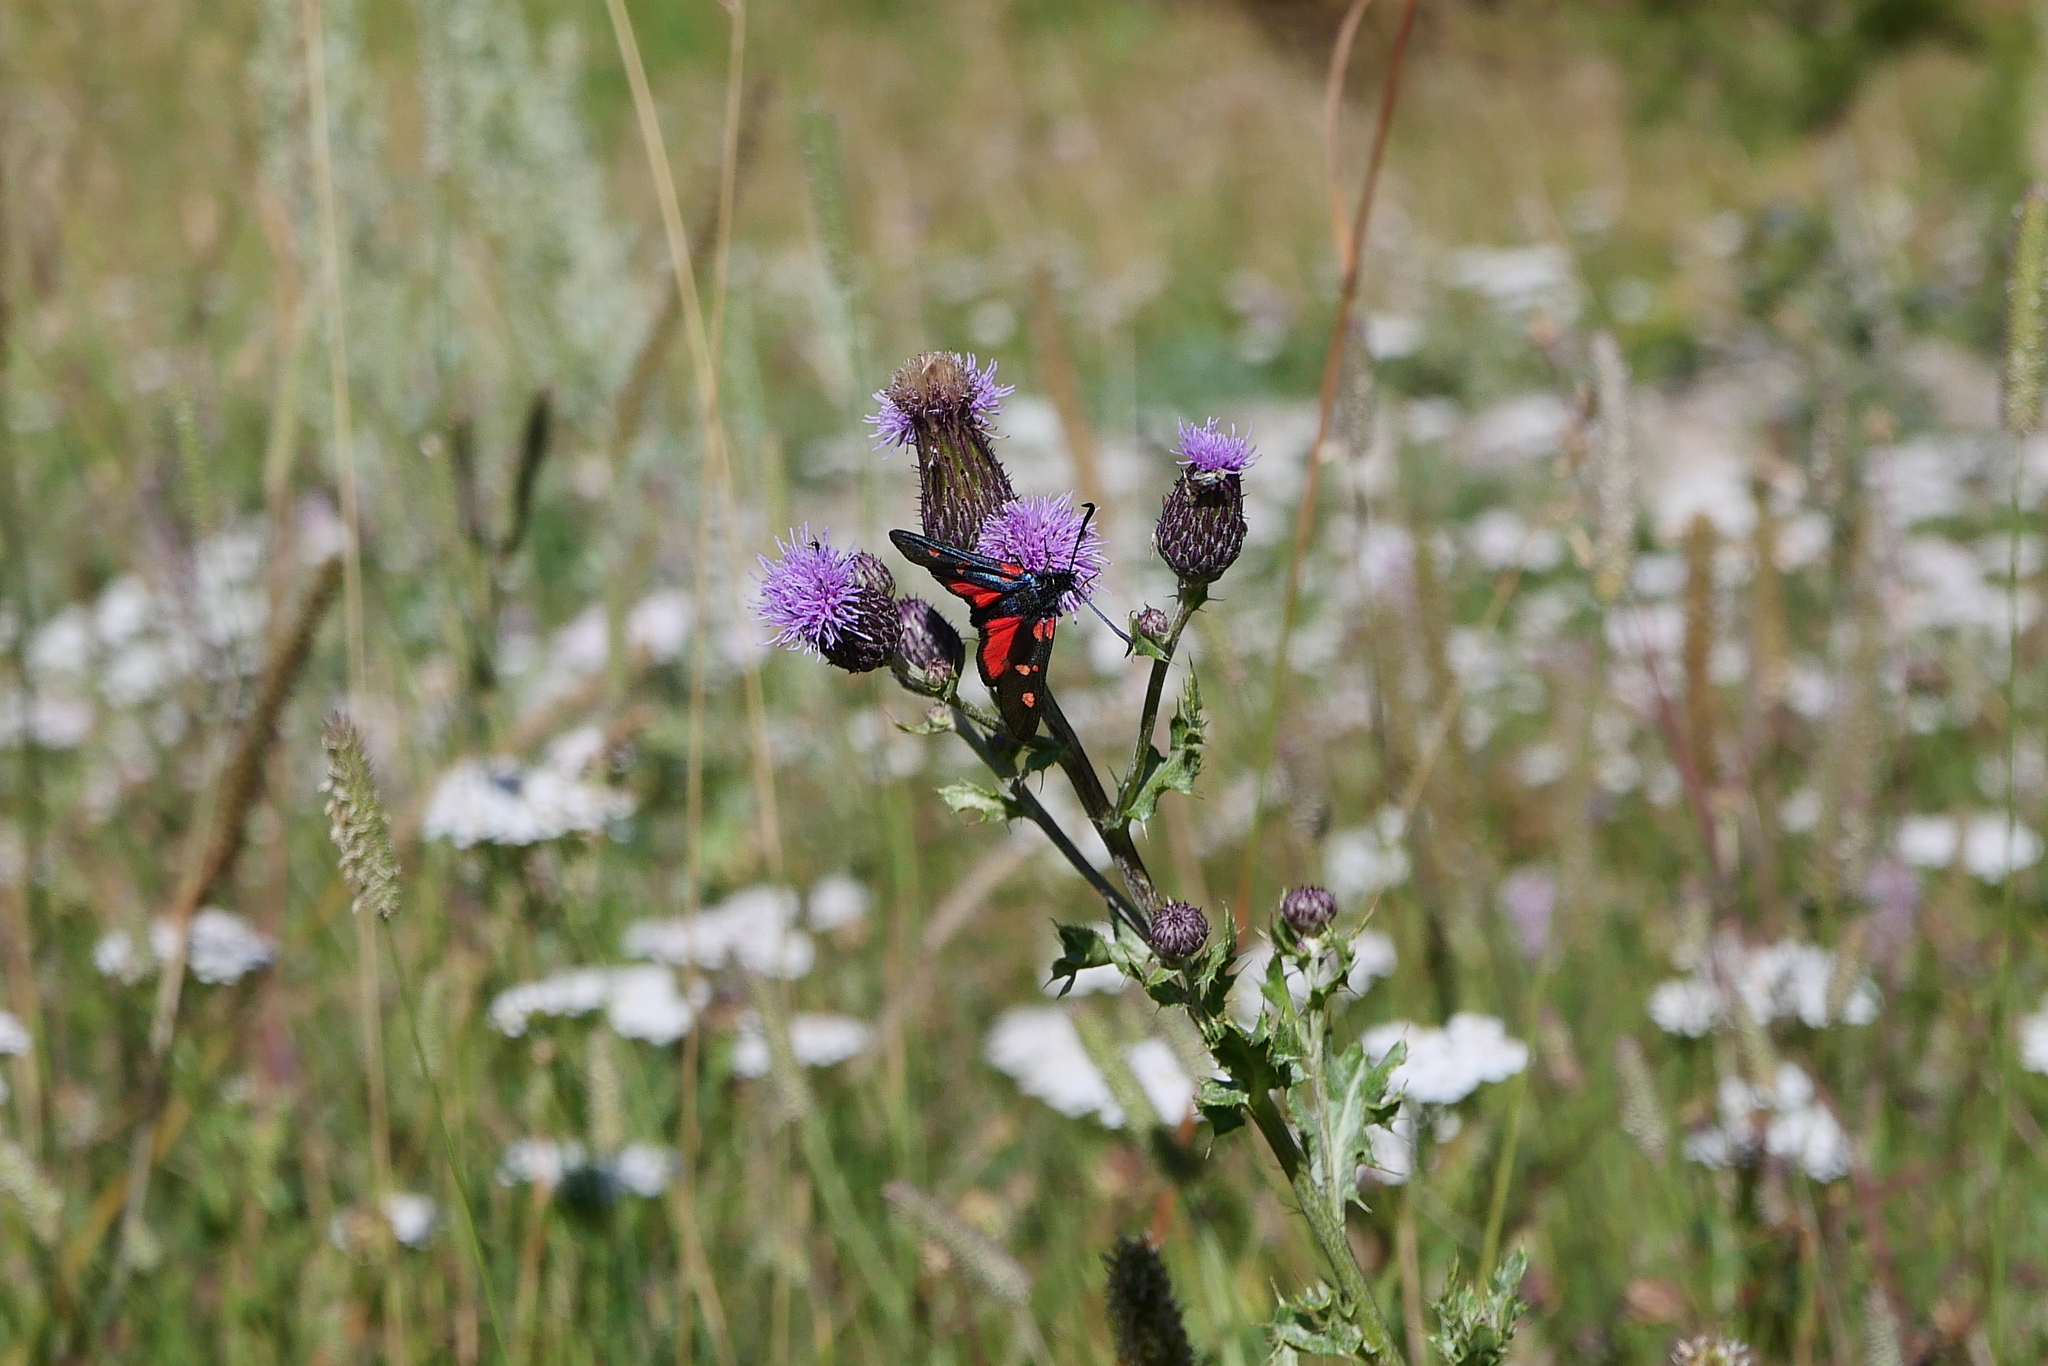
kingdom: Animalia
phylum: Arthropoda
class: Insecta
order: Lepidoptera
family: Zygaenidae
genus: Zygaena
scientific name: Zygaena lonicerae
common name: Narrow-bordered five-spot burnet
